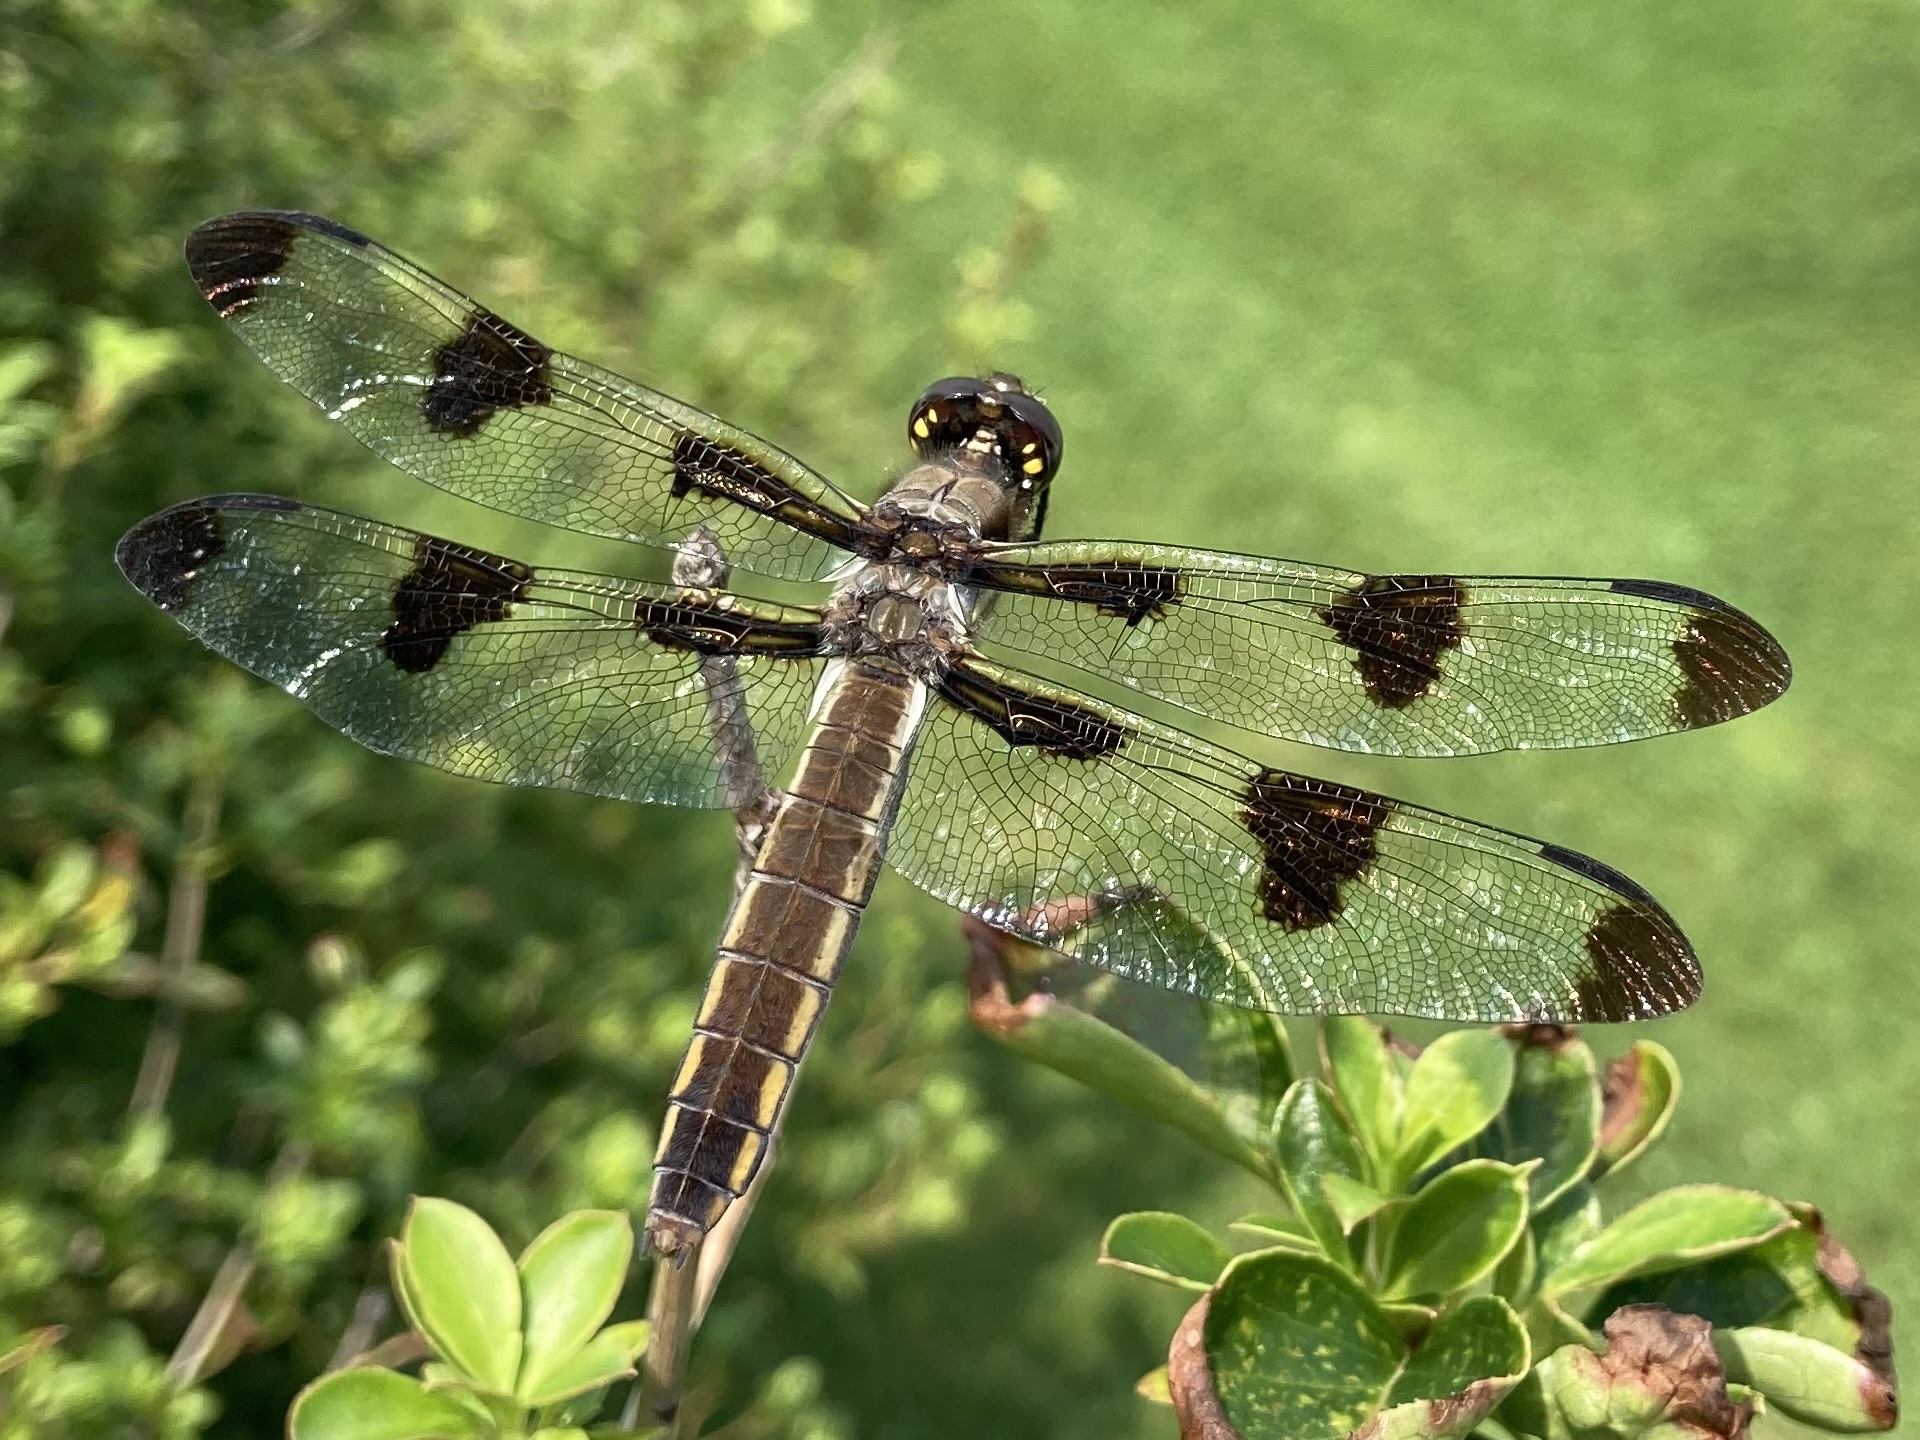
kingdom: Animalia
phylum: Arthropoda
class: Insecta
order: Odonata
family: Libellulidae
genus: Libellula
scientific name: Libellula pulchella
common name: Twelve-spotted skimmer
